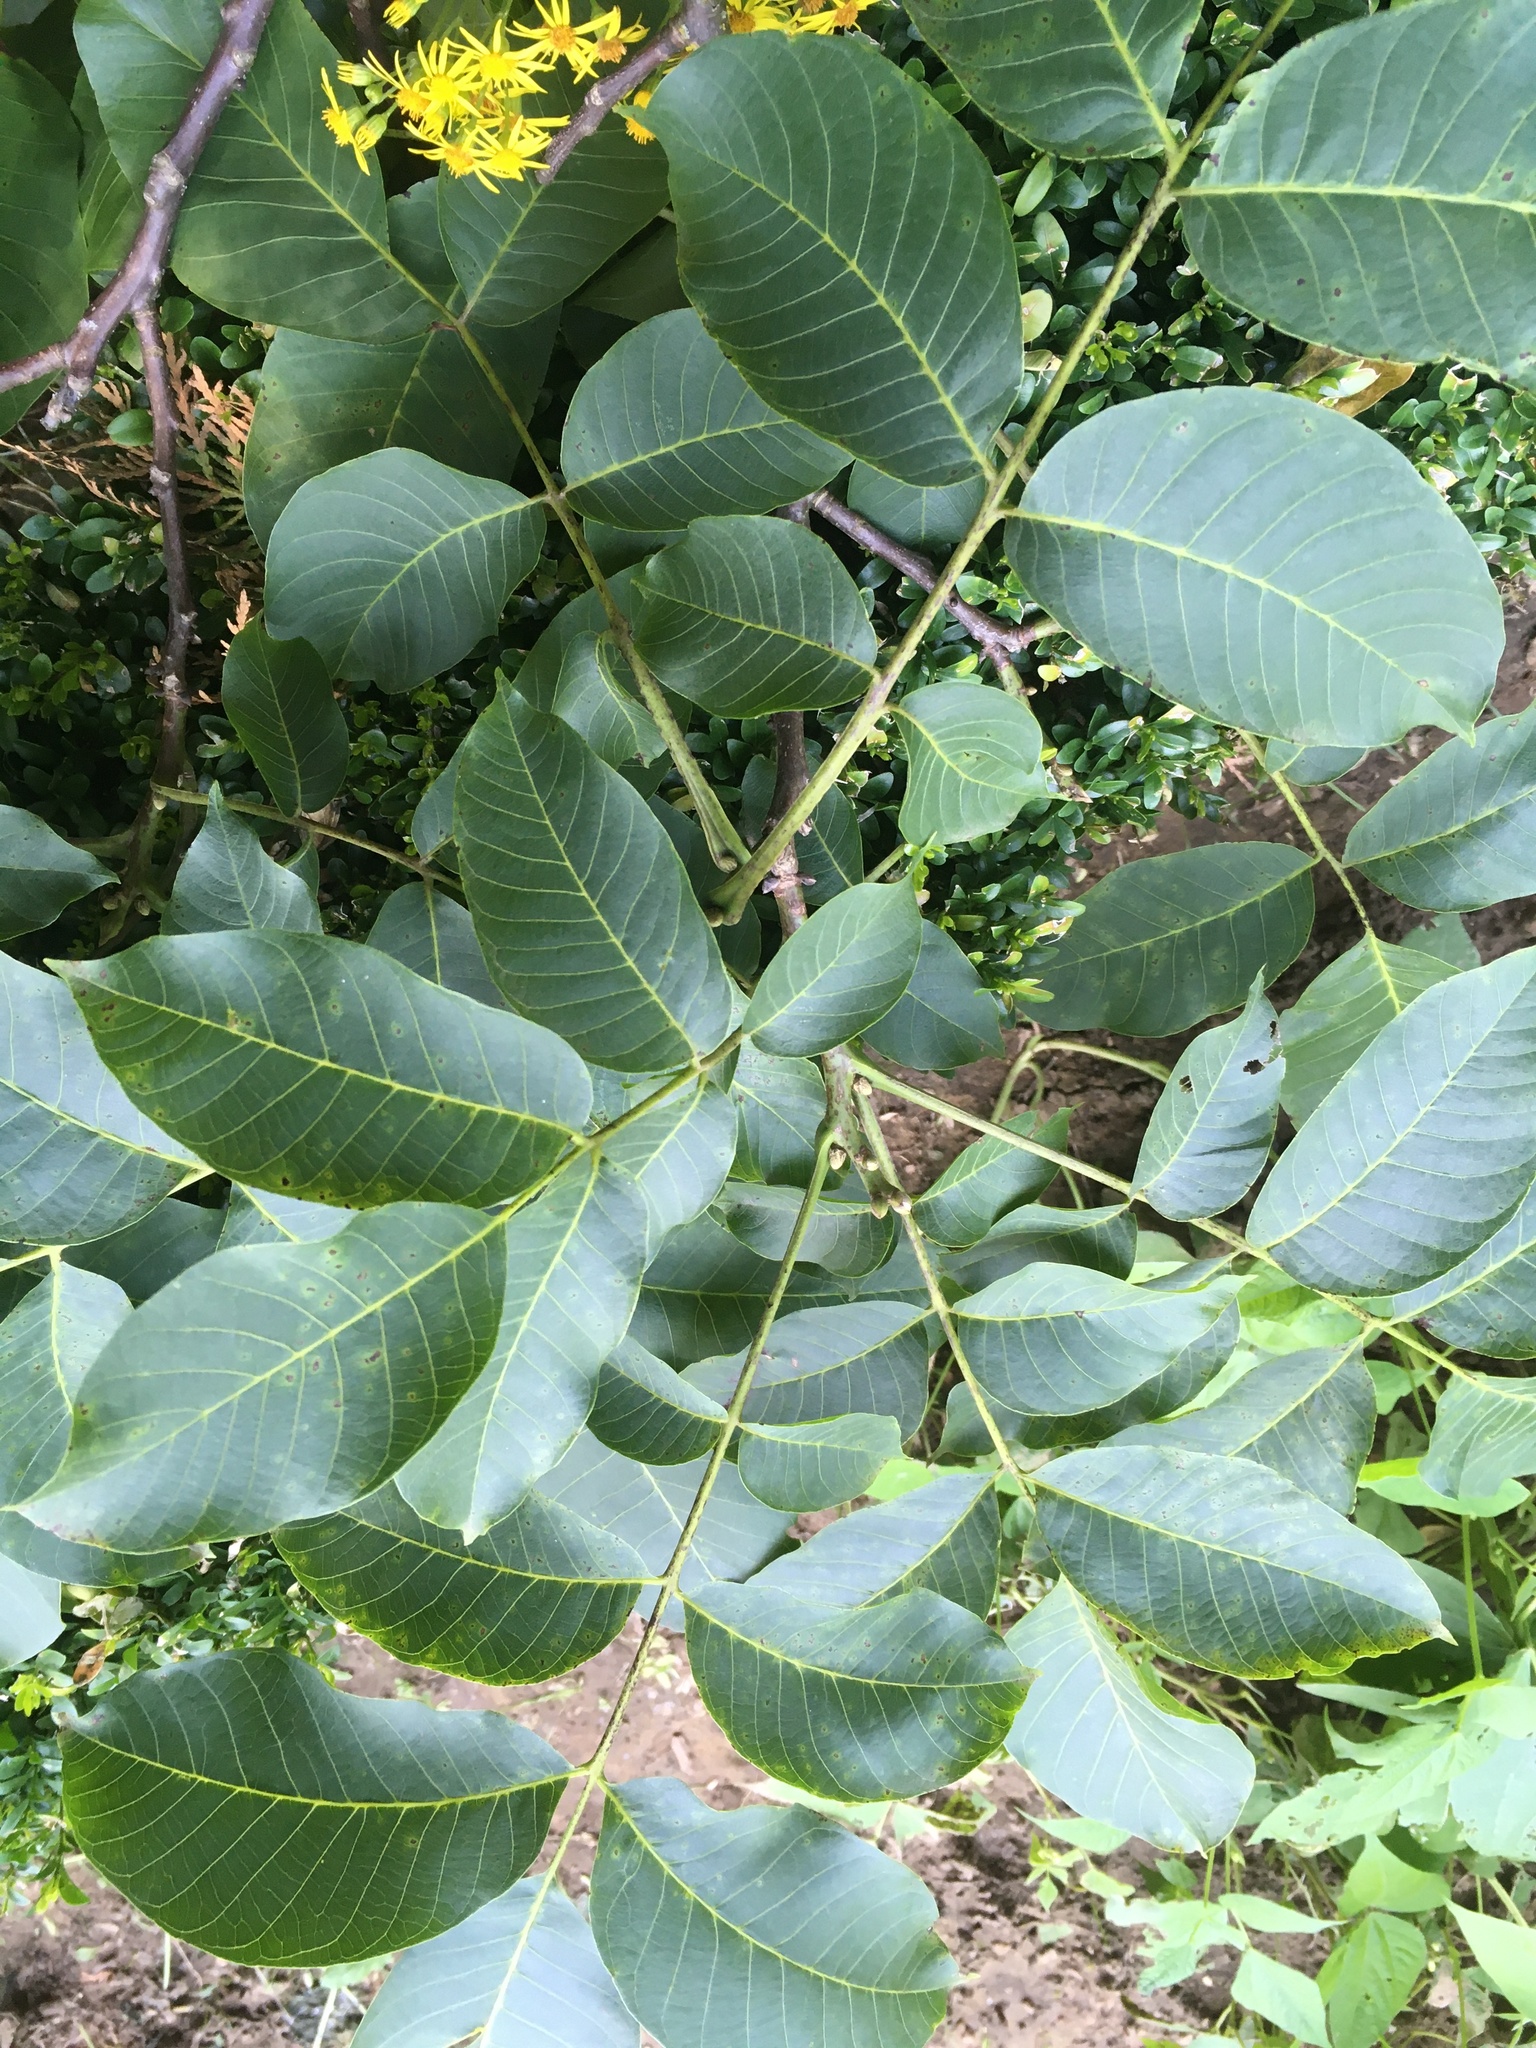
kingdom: Plantae
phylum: Tracheophyta
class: Magnoliopsida
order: Fagales
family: Juglandaceae
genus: Juglans
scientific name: Juglans regia
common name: Walnut
